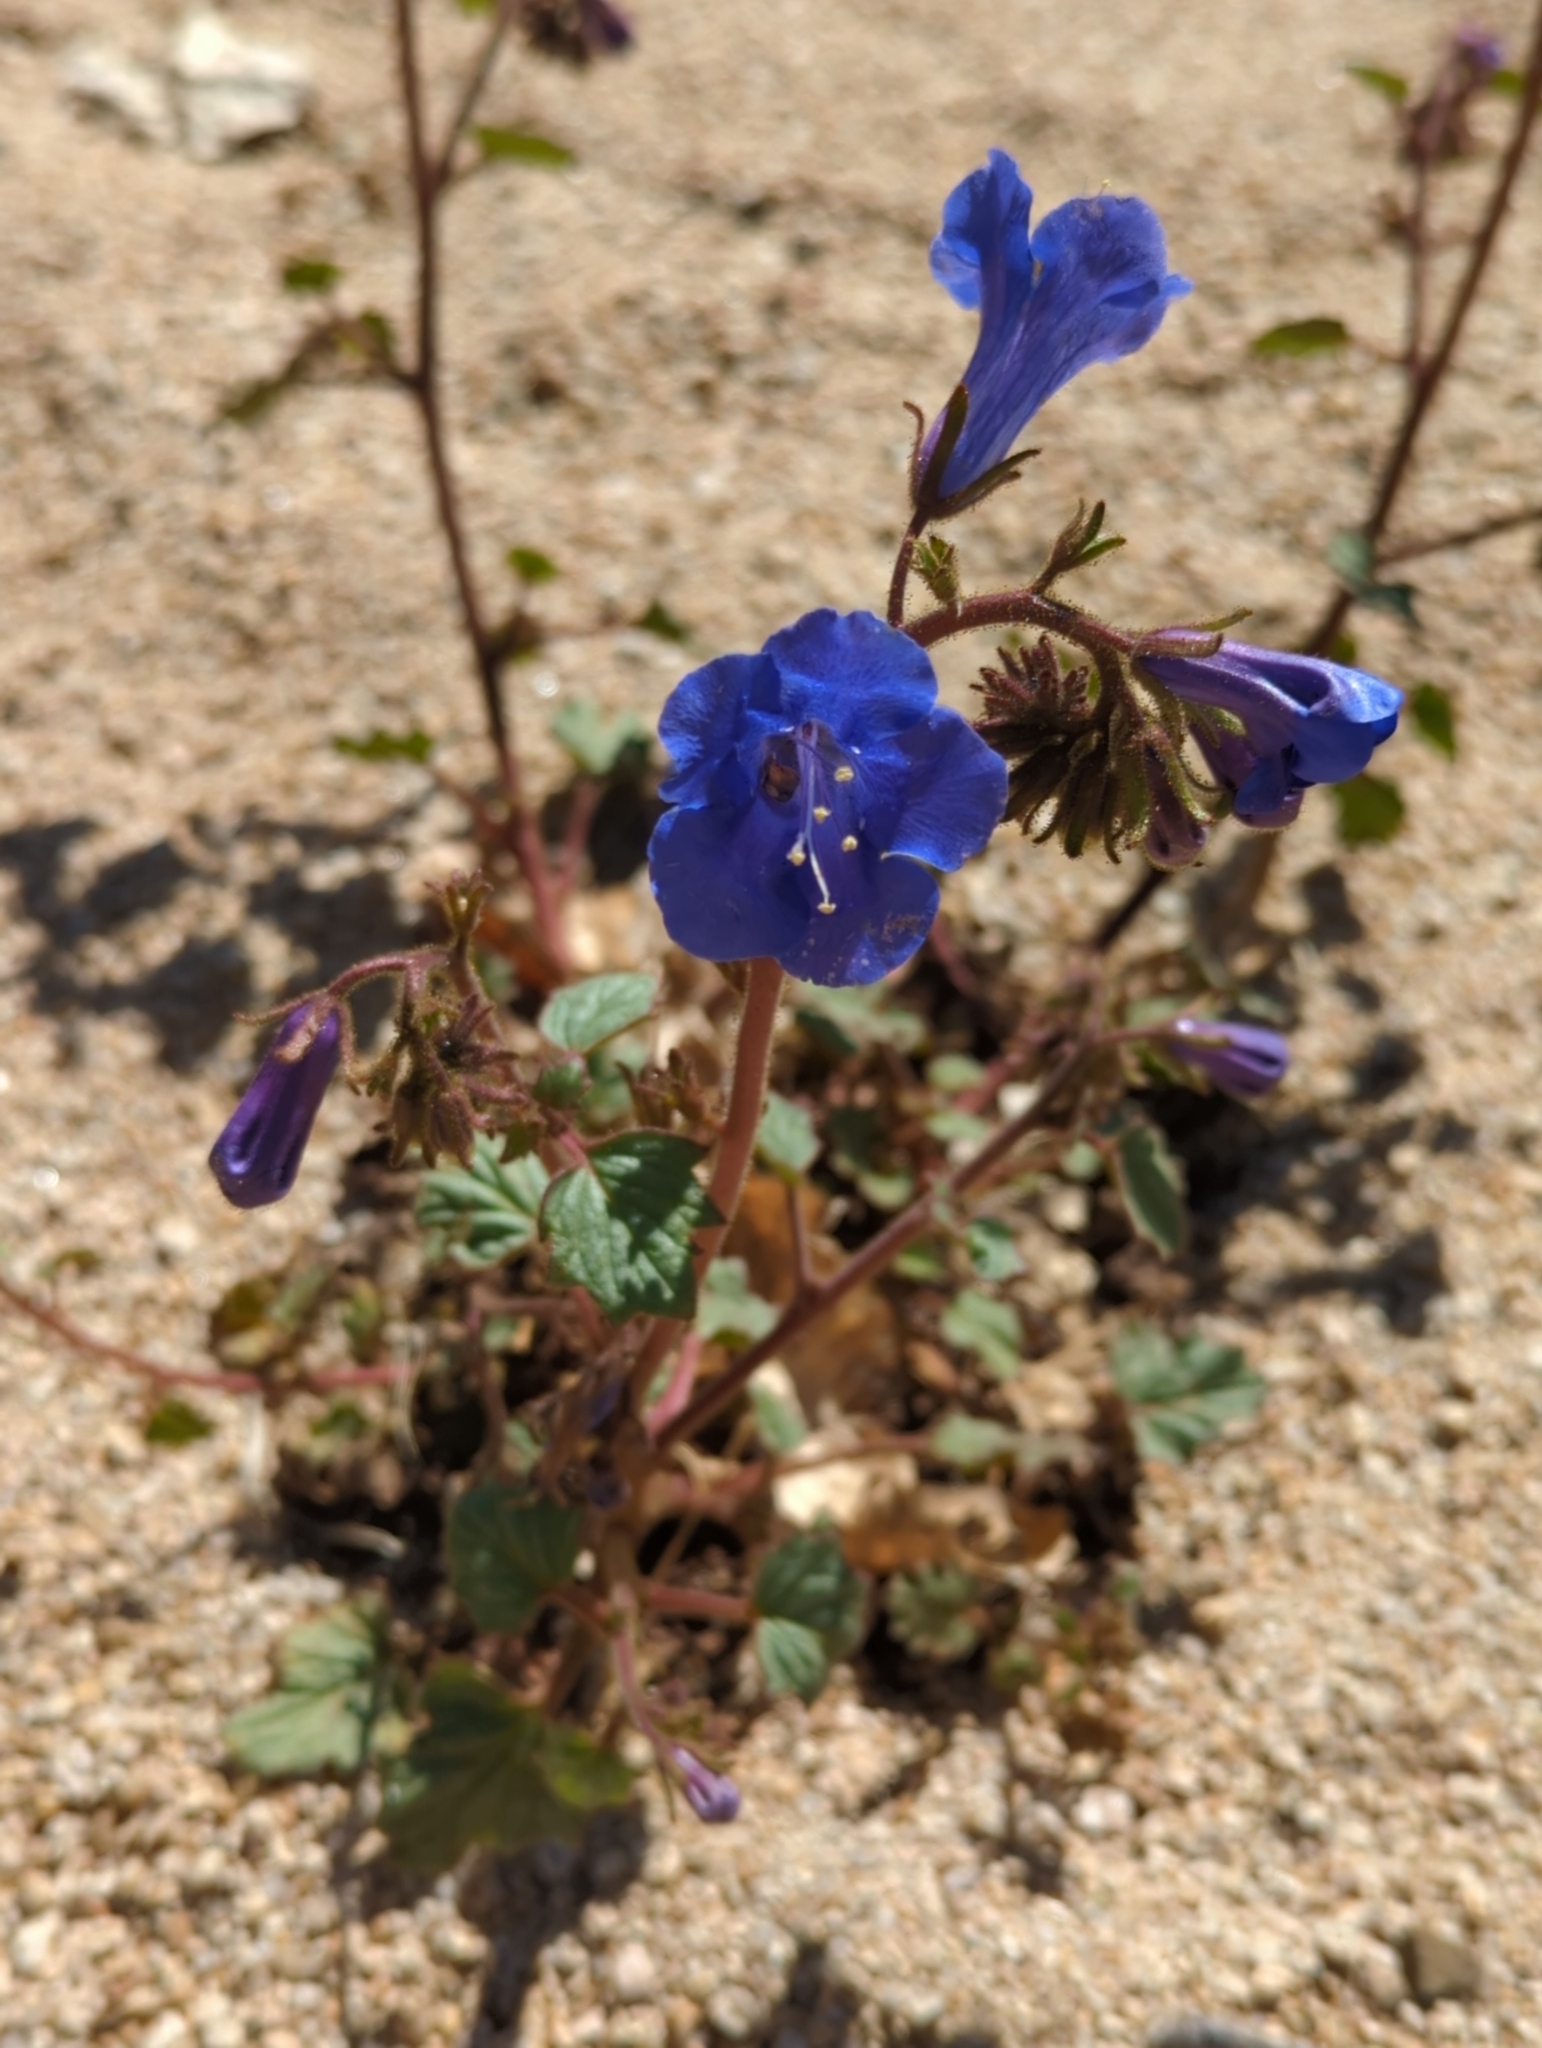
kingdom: Plantae
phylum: Tracheophyta
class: Magnoliopsida
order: Boraginales
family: Hydrophyllaceae
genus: Phacelia
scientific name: Phacelia campanularia
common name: California bluebell
